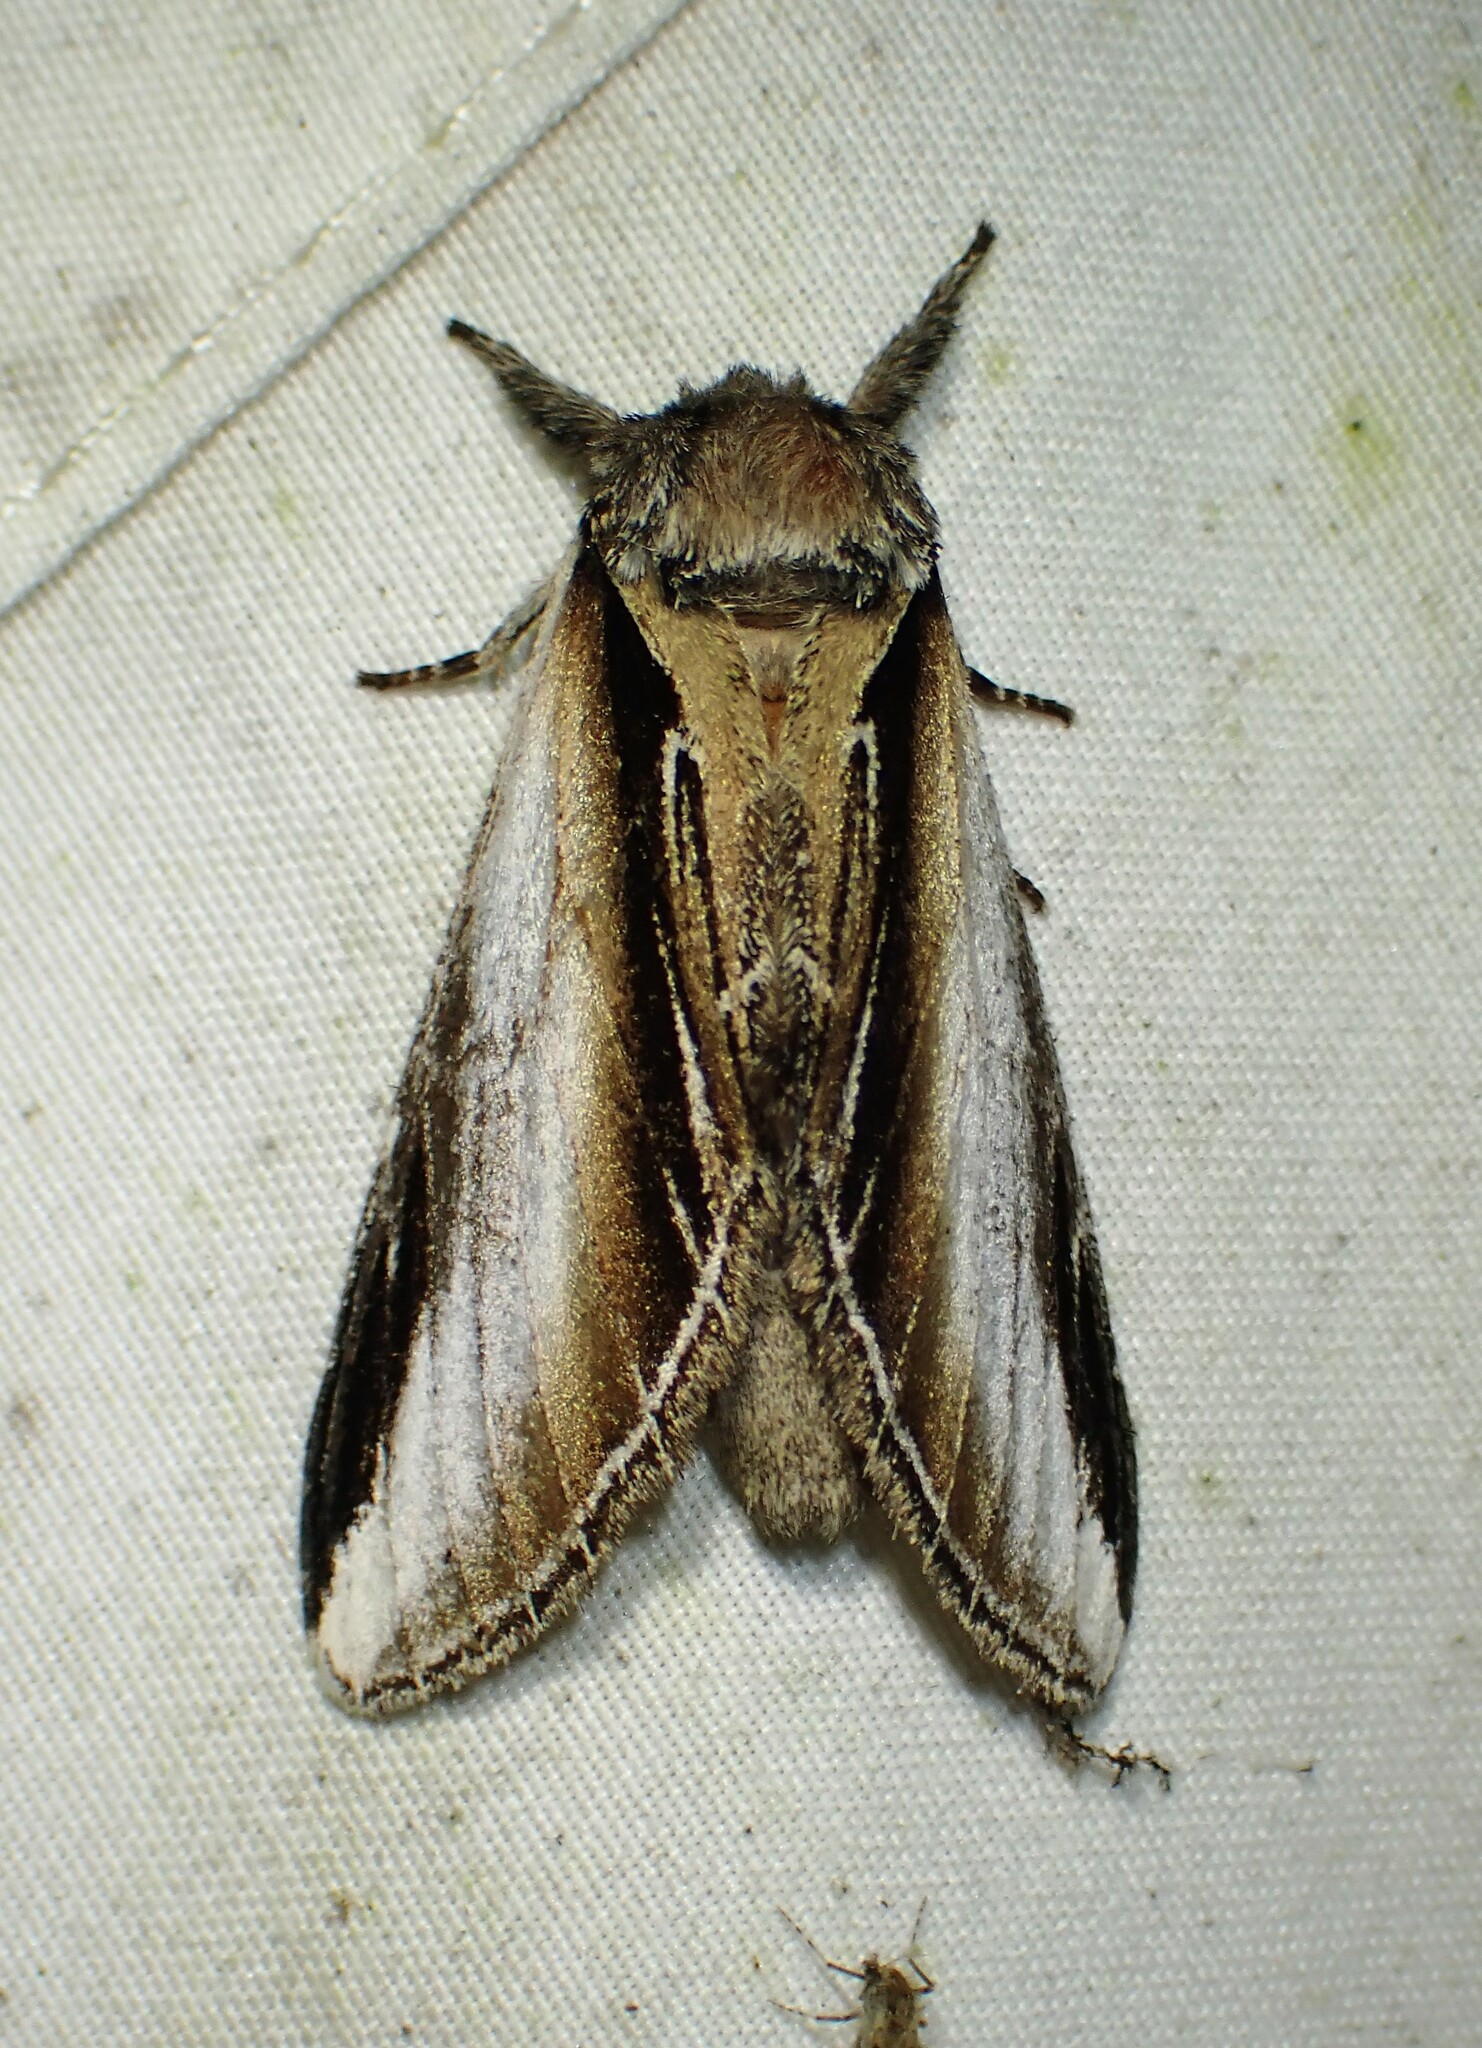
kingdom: Animalia
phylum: Arthropoda
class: Insecta
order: Lepidoptera
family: Notodontidae
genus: Pheosia
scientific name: Pheosia rimosa
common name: Black-rimmed prominent
